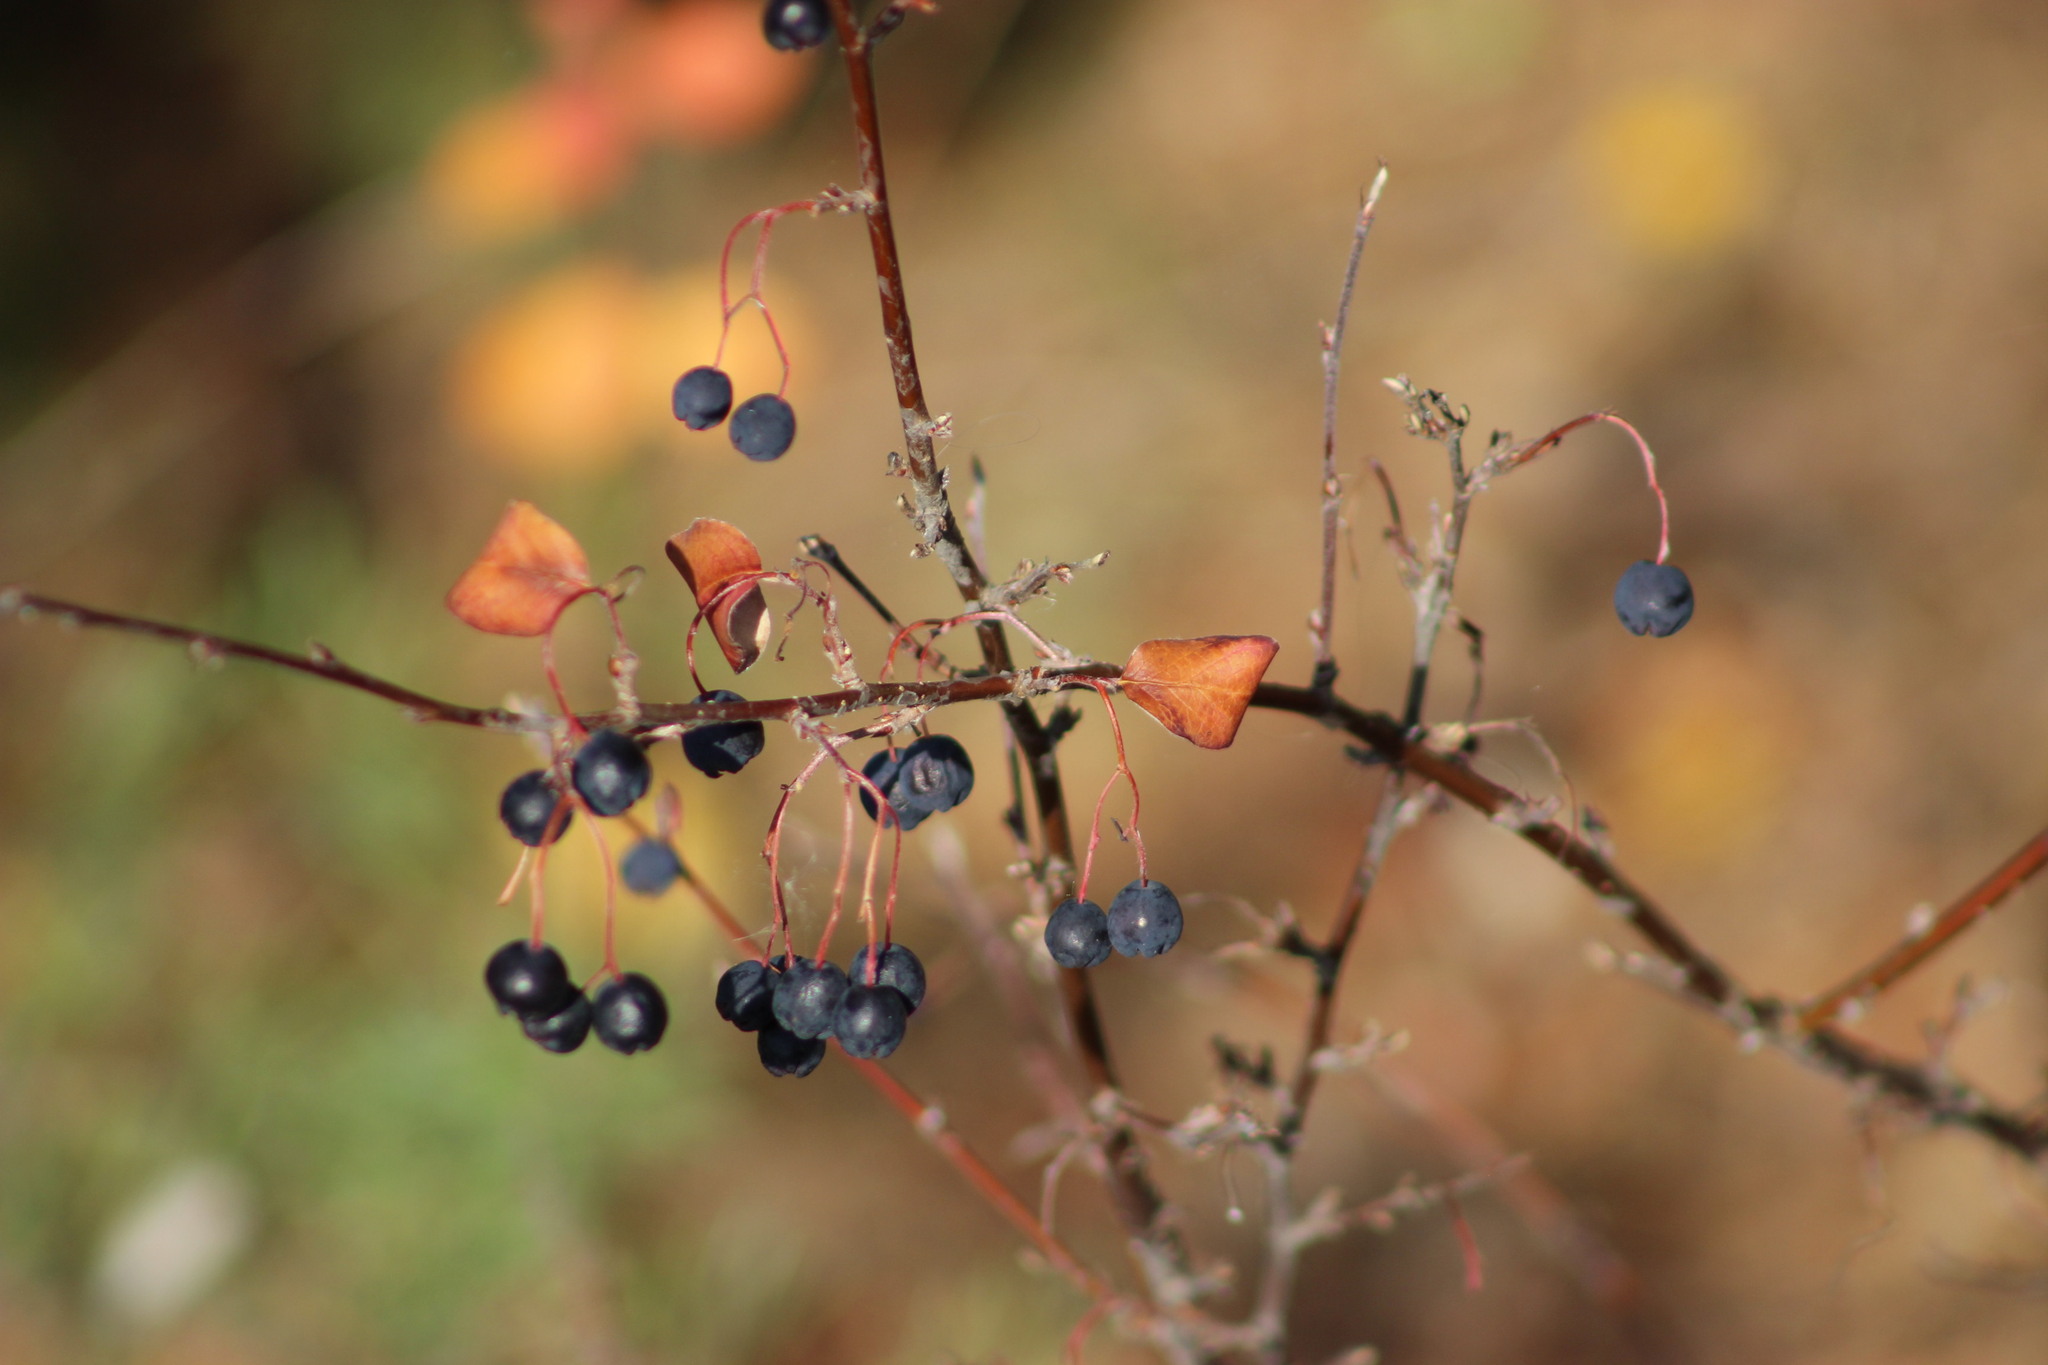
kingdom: Plantae
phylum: Tracheophyta
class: Magnoliopsida
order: Rosales
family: Rosaceae
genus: Cotoneaster
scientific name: Cotoneaster melanocarpus
